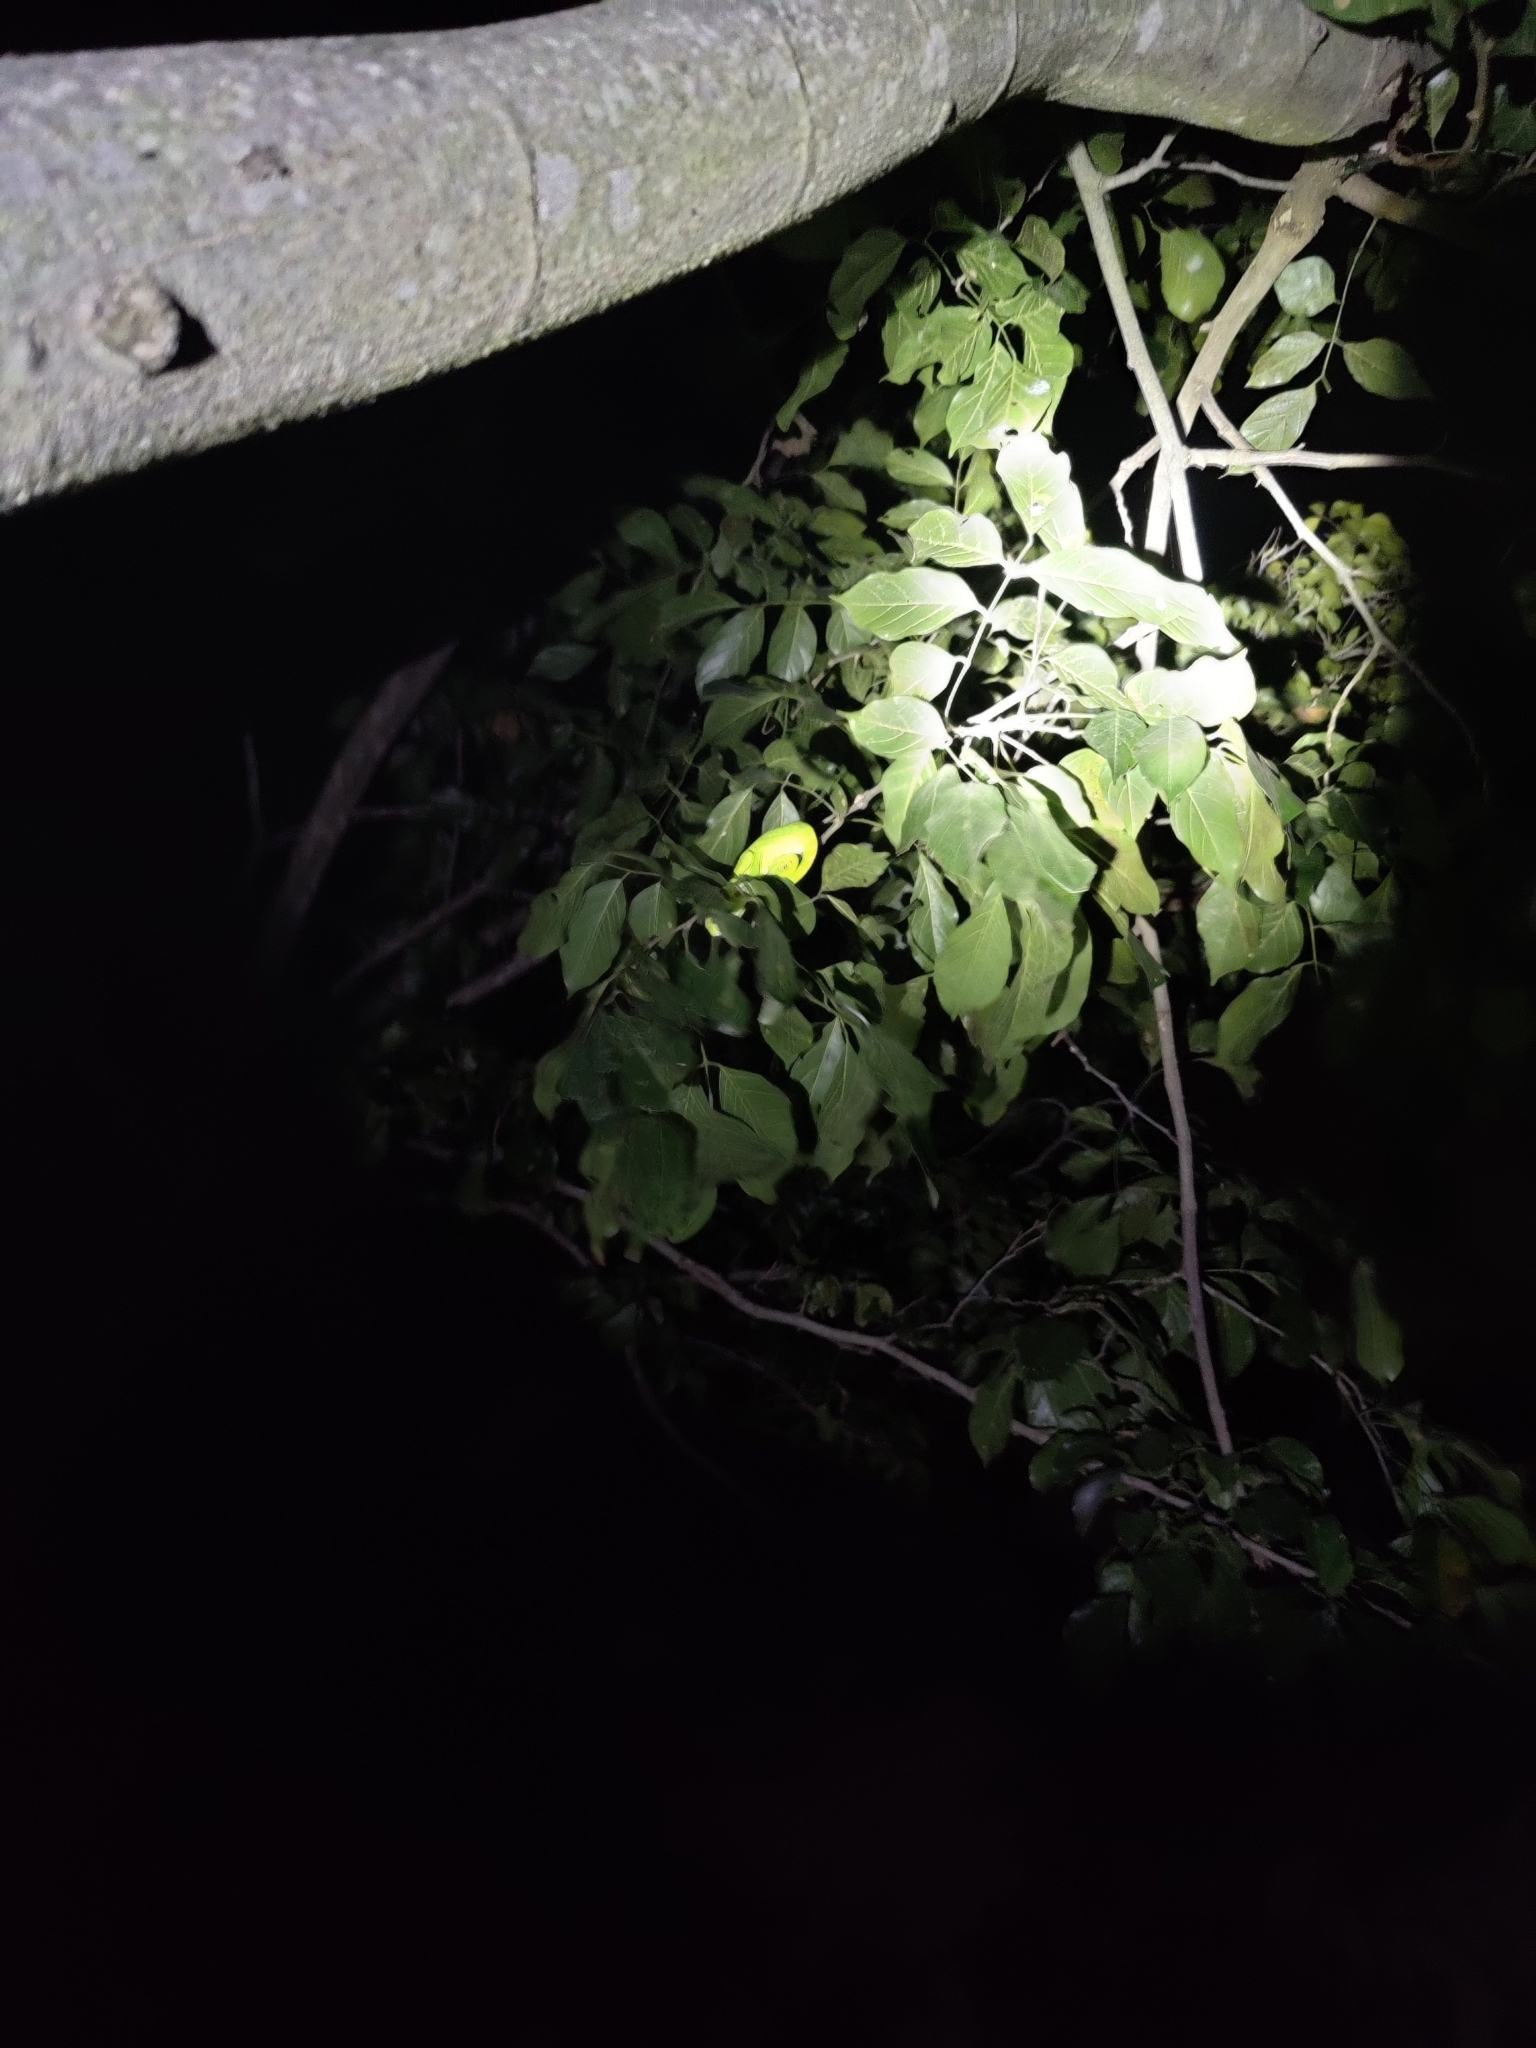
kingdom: Animalia
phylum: Chordata
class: Squamata
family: Chamaeleonidae
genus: Chamaeleo
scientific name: Chamaeleo zeylanicus
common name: Indian chameleon
